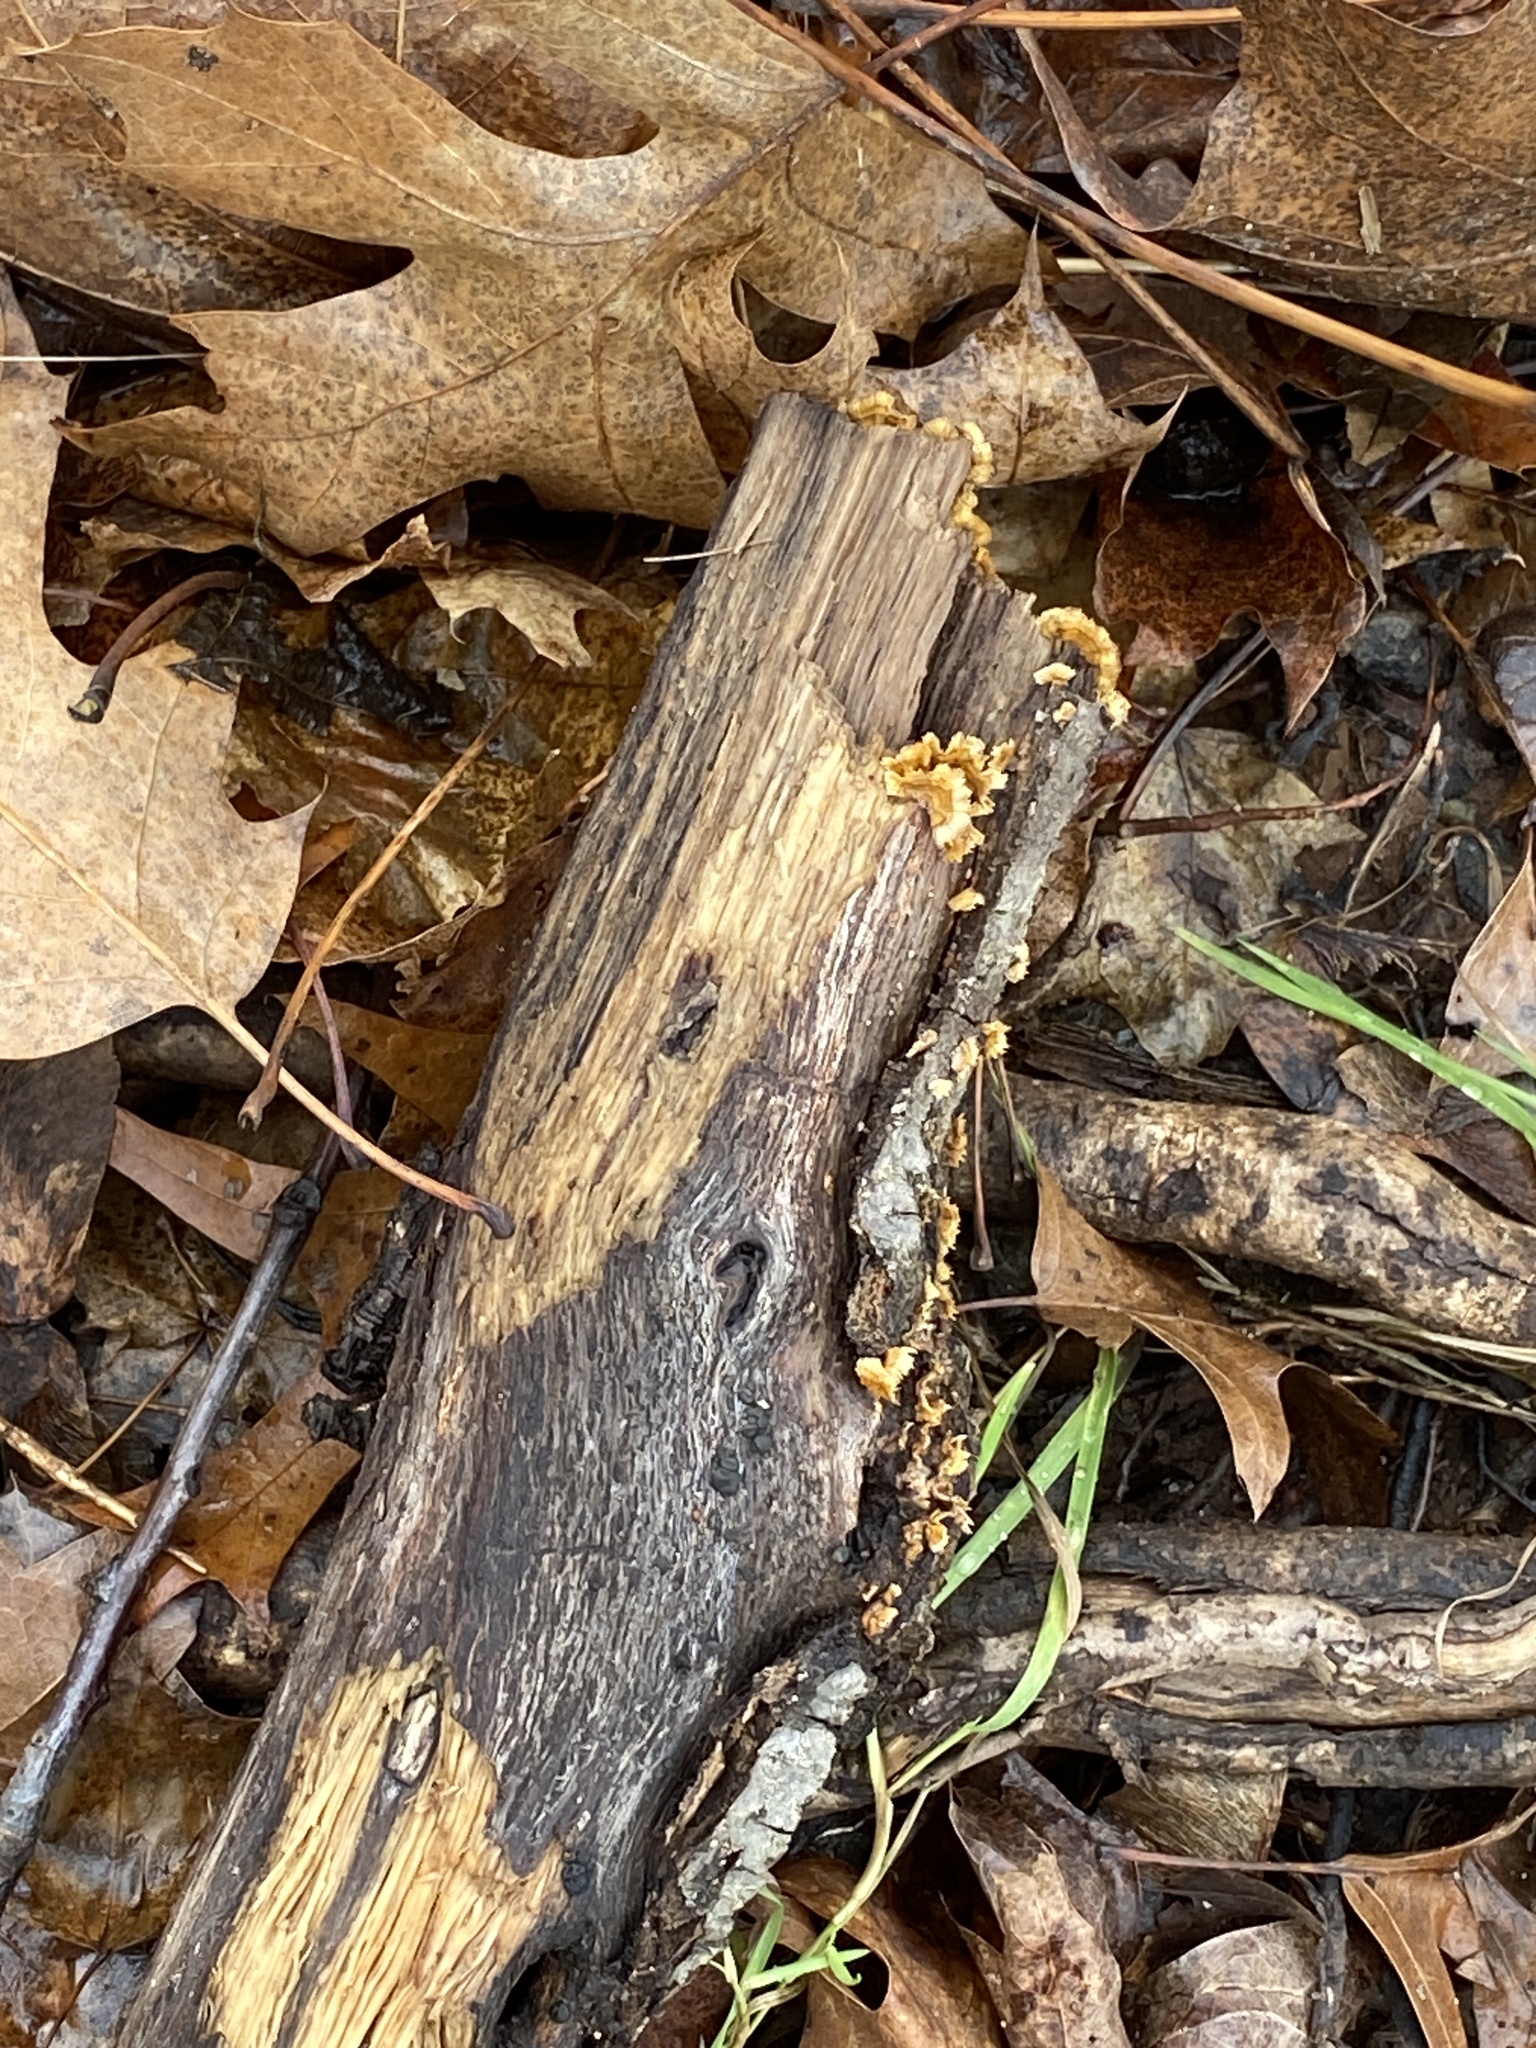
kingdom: Fungi
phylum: Basidiomycota
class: Agaricomycetes
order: Russulales
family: Stereaceae
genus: Stereum
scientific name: Stereum complicatum
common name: Crowded parchment
